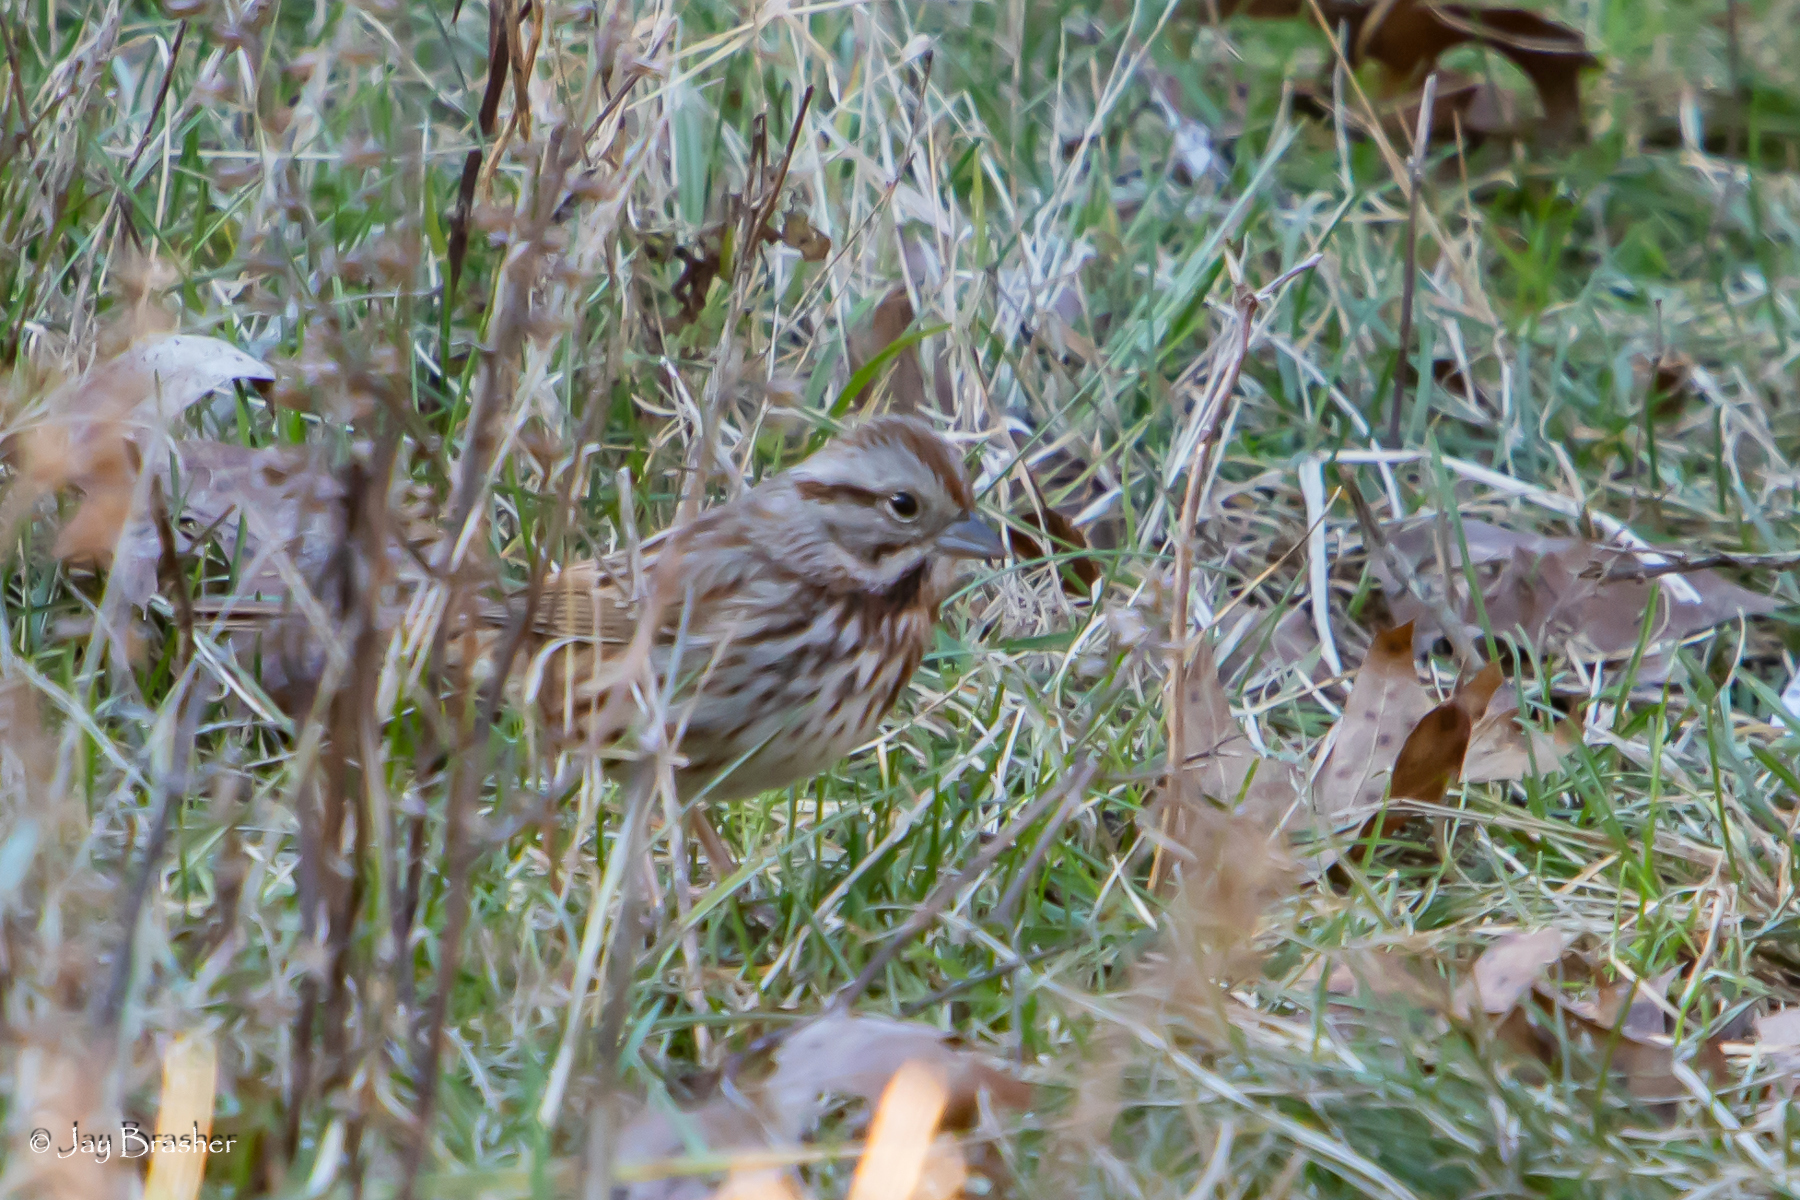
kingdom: Animalia
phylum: Chordata
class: Aves
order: Passeriformes
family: Passerellidae
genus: Melospiza
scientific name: Melospiza melodia
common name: Song sparrow
